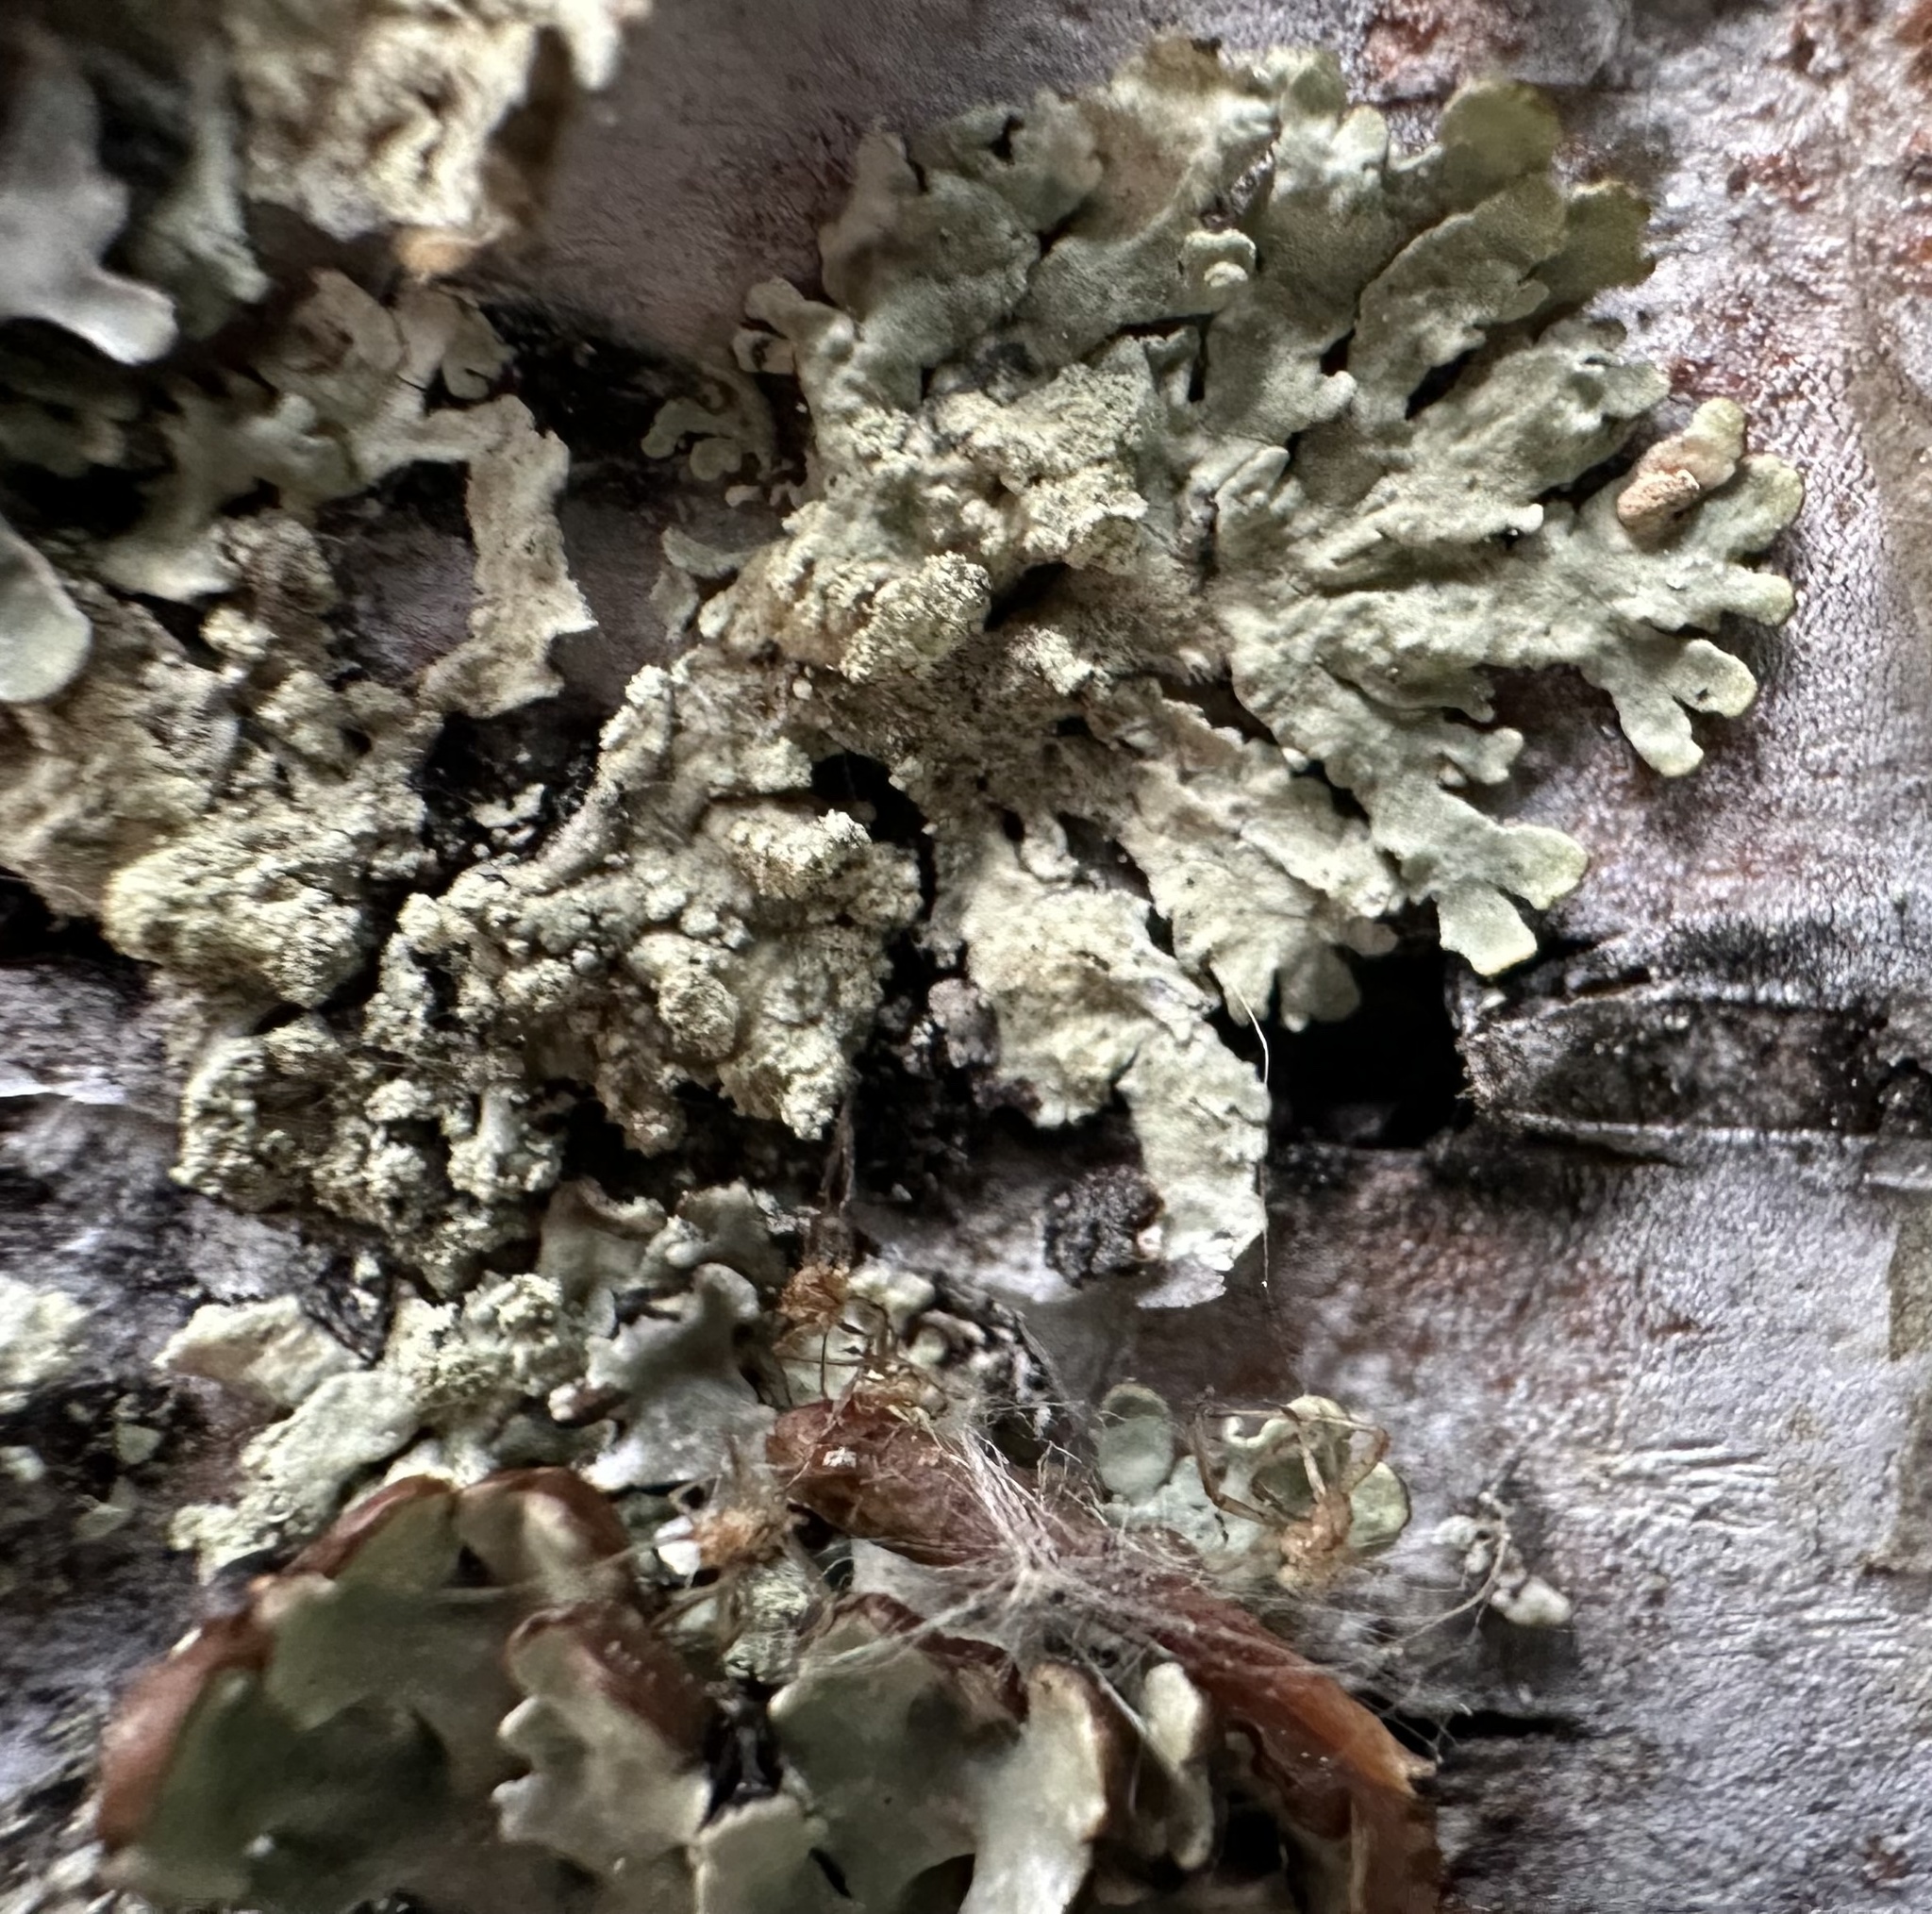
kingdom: Fungi
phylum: Ascomycota
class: Lecanoromycetes
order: Lecanorales
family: Parmeliaceae
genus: Parmeliopsis
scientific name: Parmeliopsis ambigua
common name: Green starburst lichen
